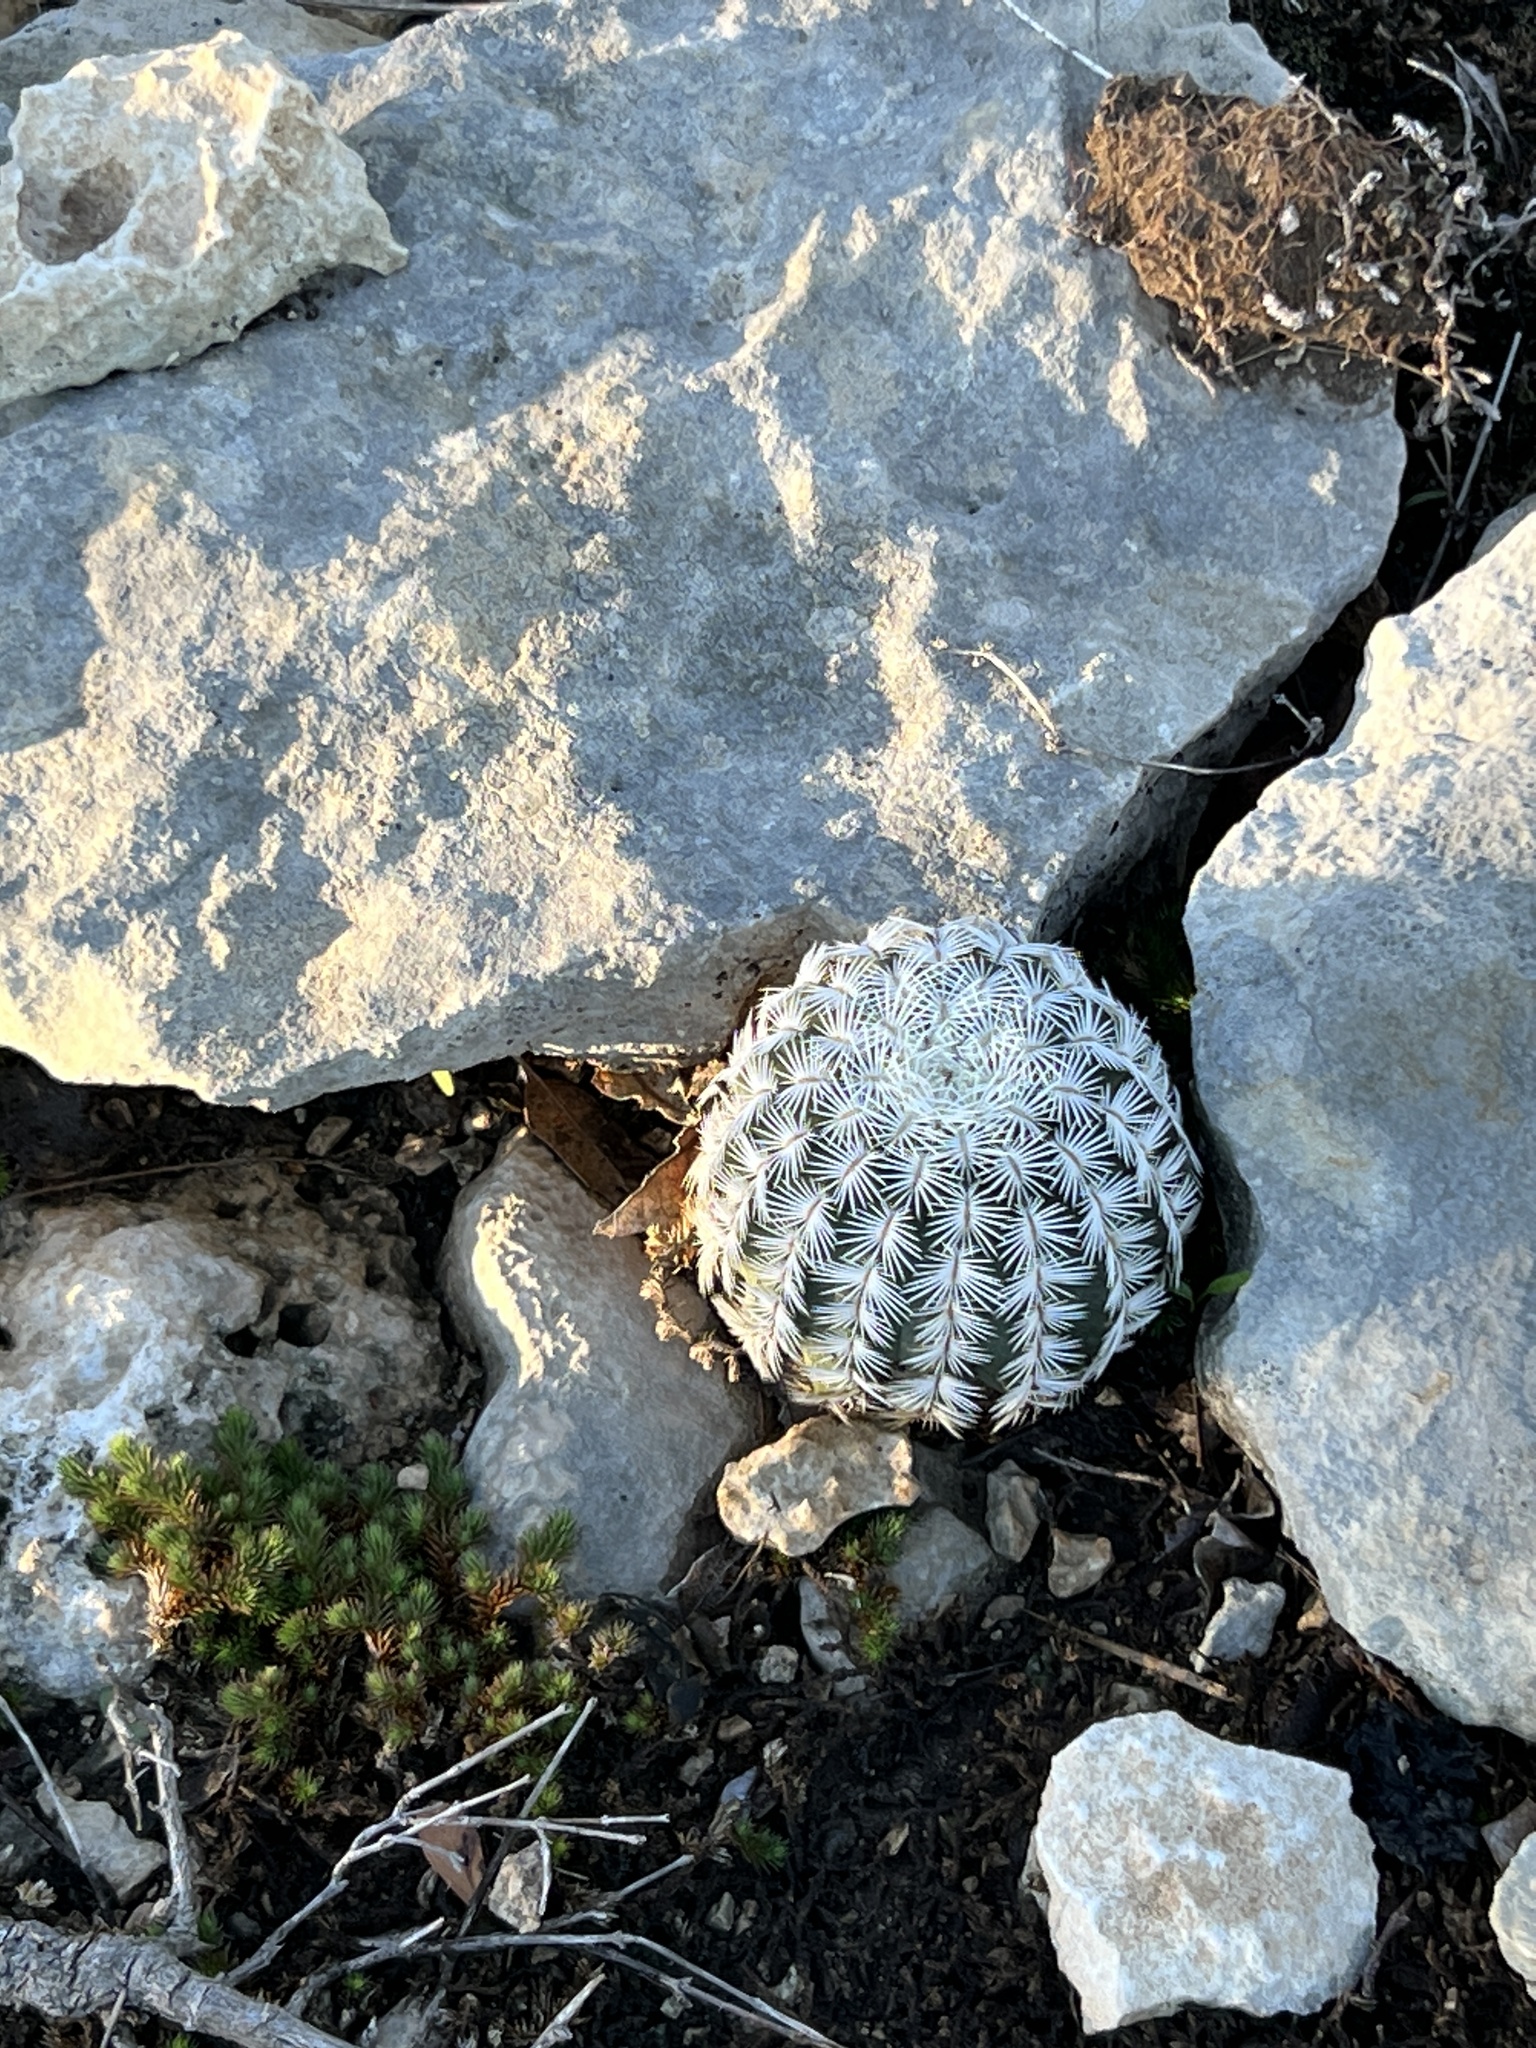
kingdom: Plantae
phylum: Tracheophyta
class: Magnoliopsida
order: Caryophyllales
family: Cactaceae
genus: Echinocereus
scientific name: Echinocereus reichenbachii
